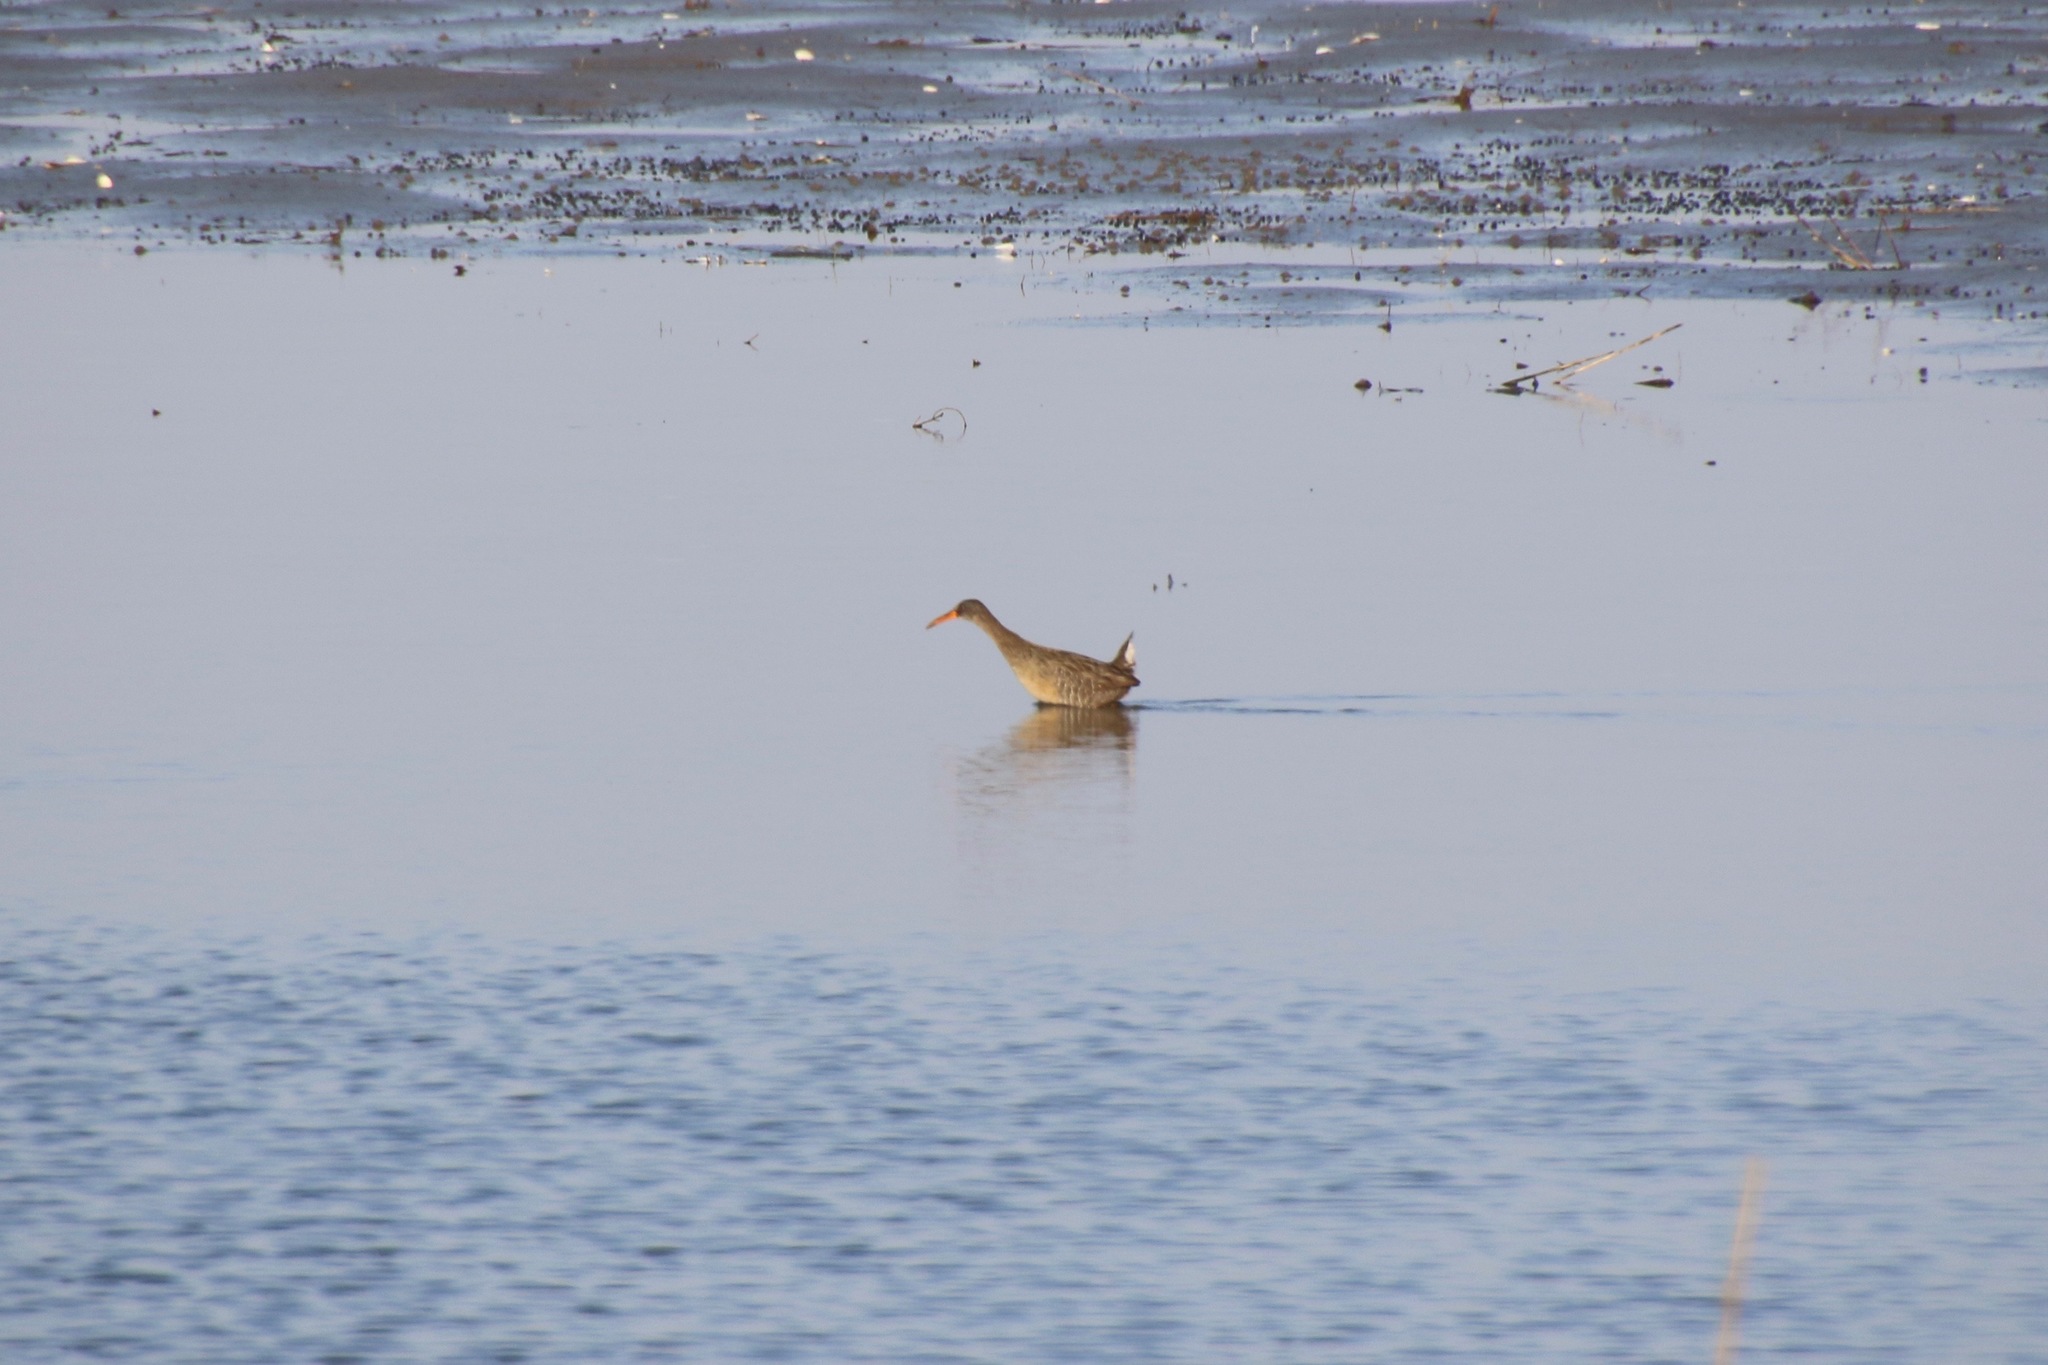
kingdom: Animalia
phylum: Chordata
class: Aves
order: Gruiformes
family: Rallidae
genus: Rallus
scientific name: Rallus crepitans
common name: Clapper rail
